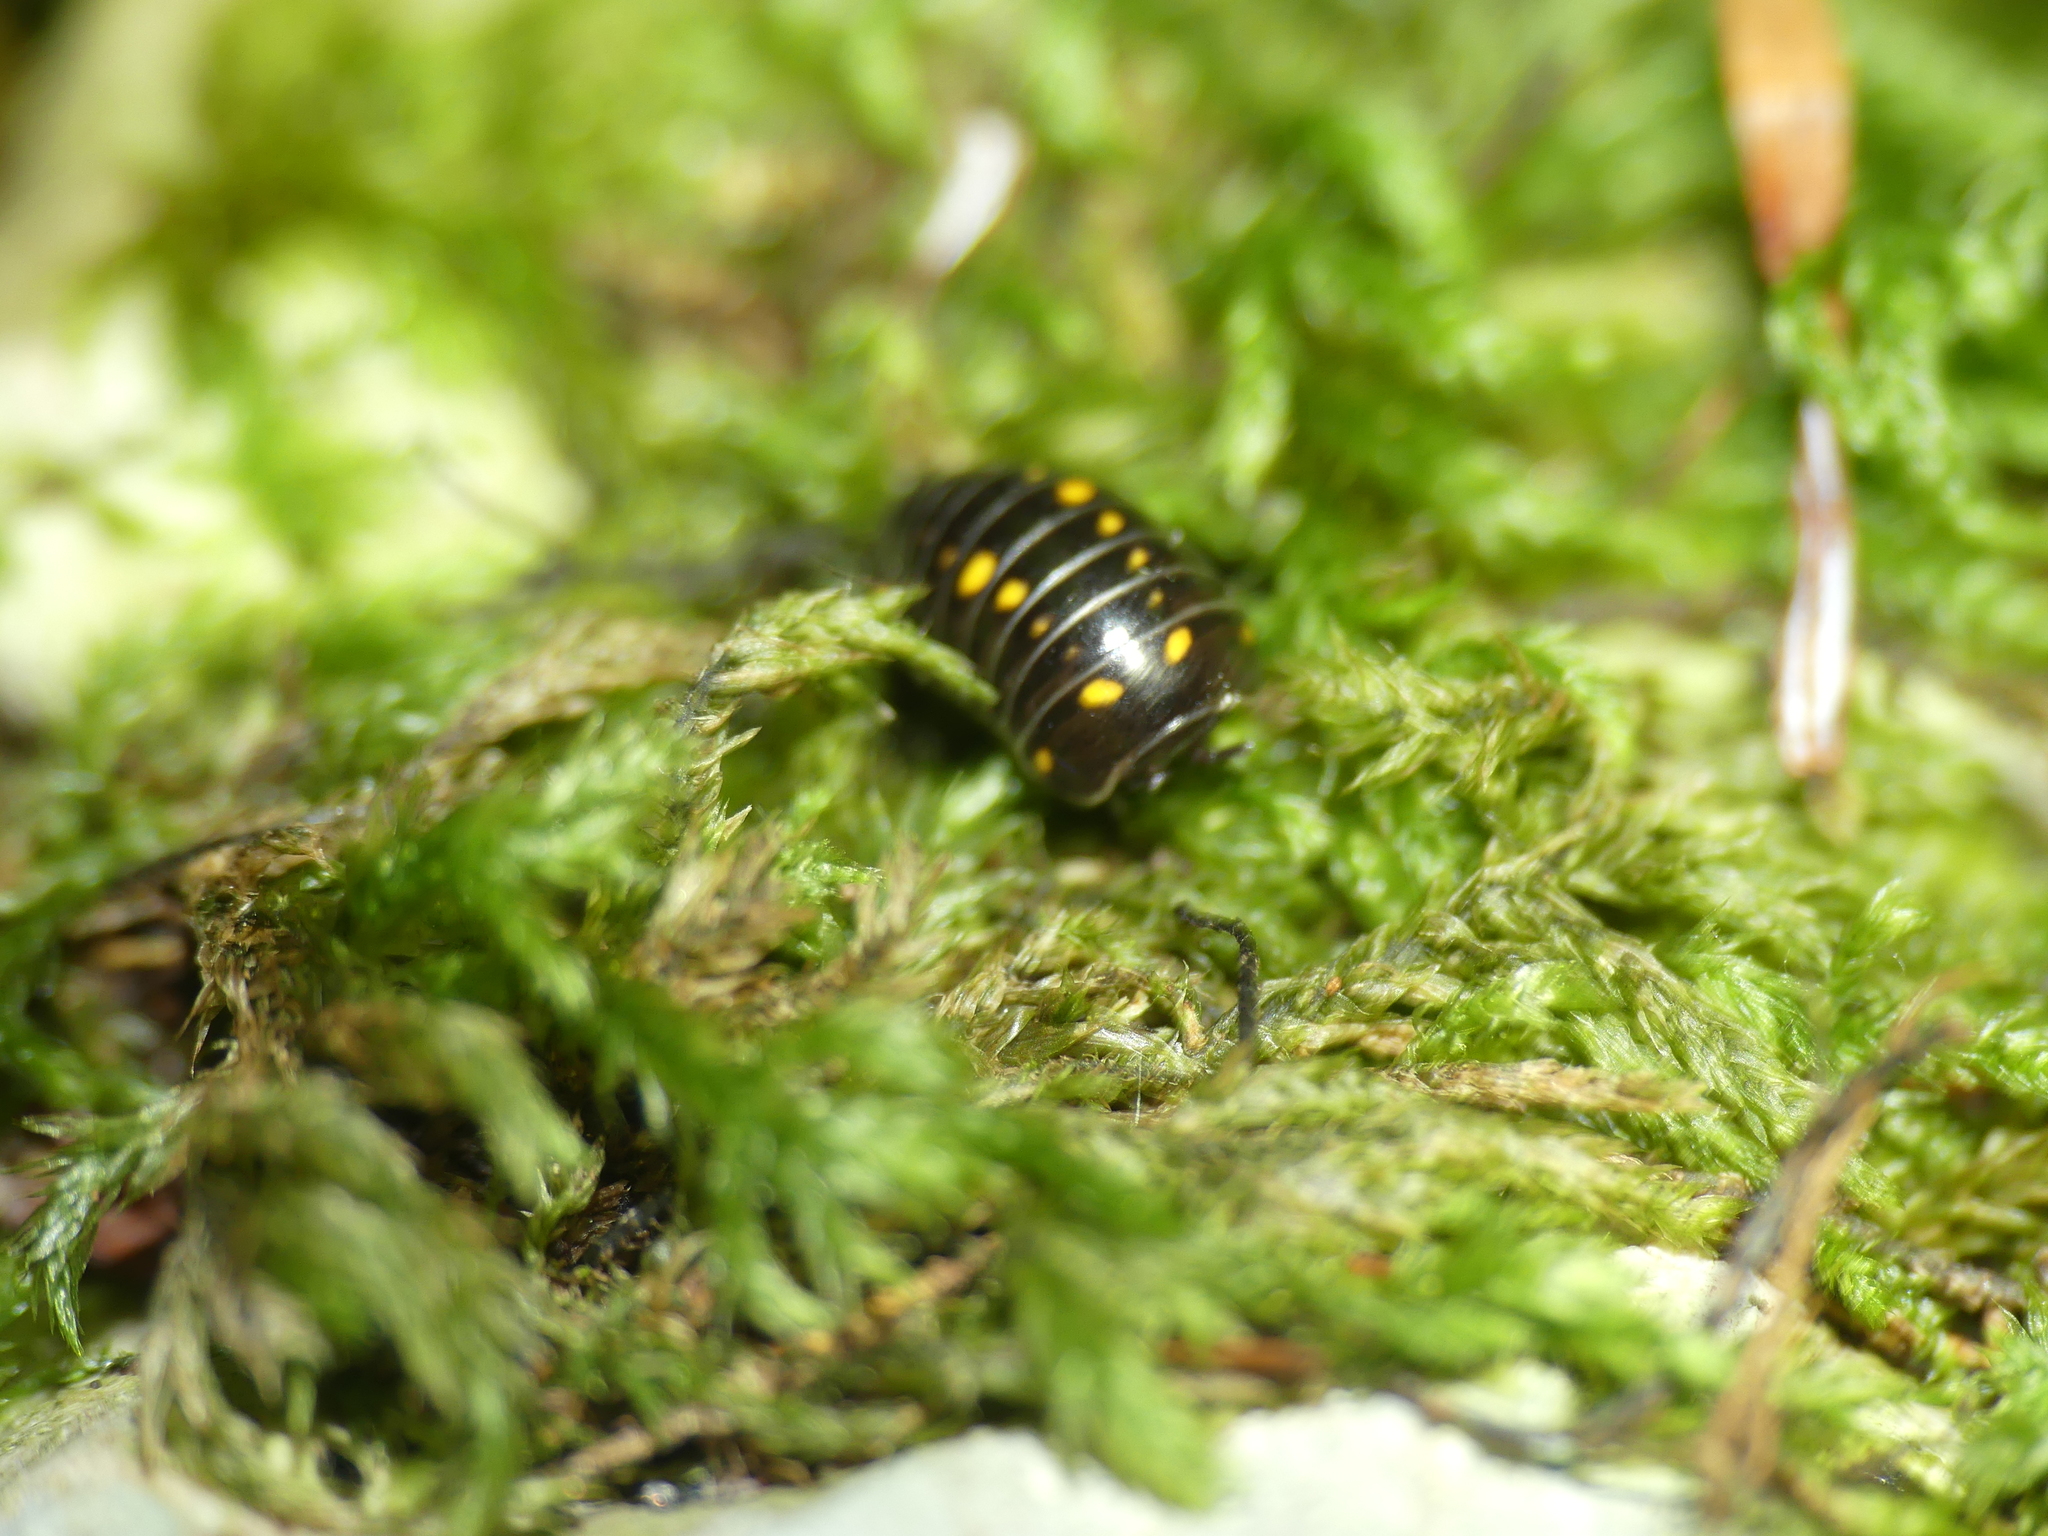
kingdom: Animalia
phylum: Arthropoda
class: Diplopoda
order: Glomerida
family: Glomeridae
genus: Glomeris
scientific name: Glomeris pustulata
